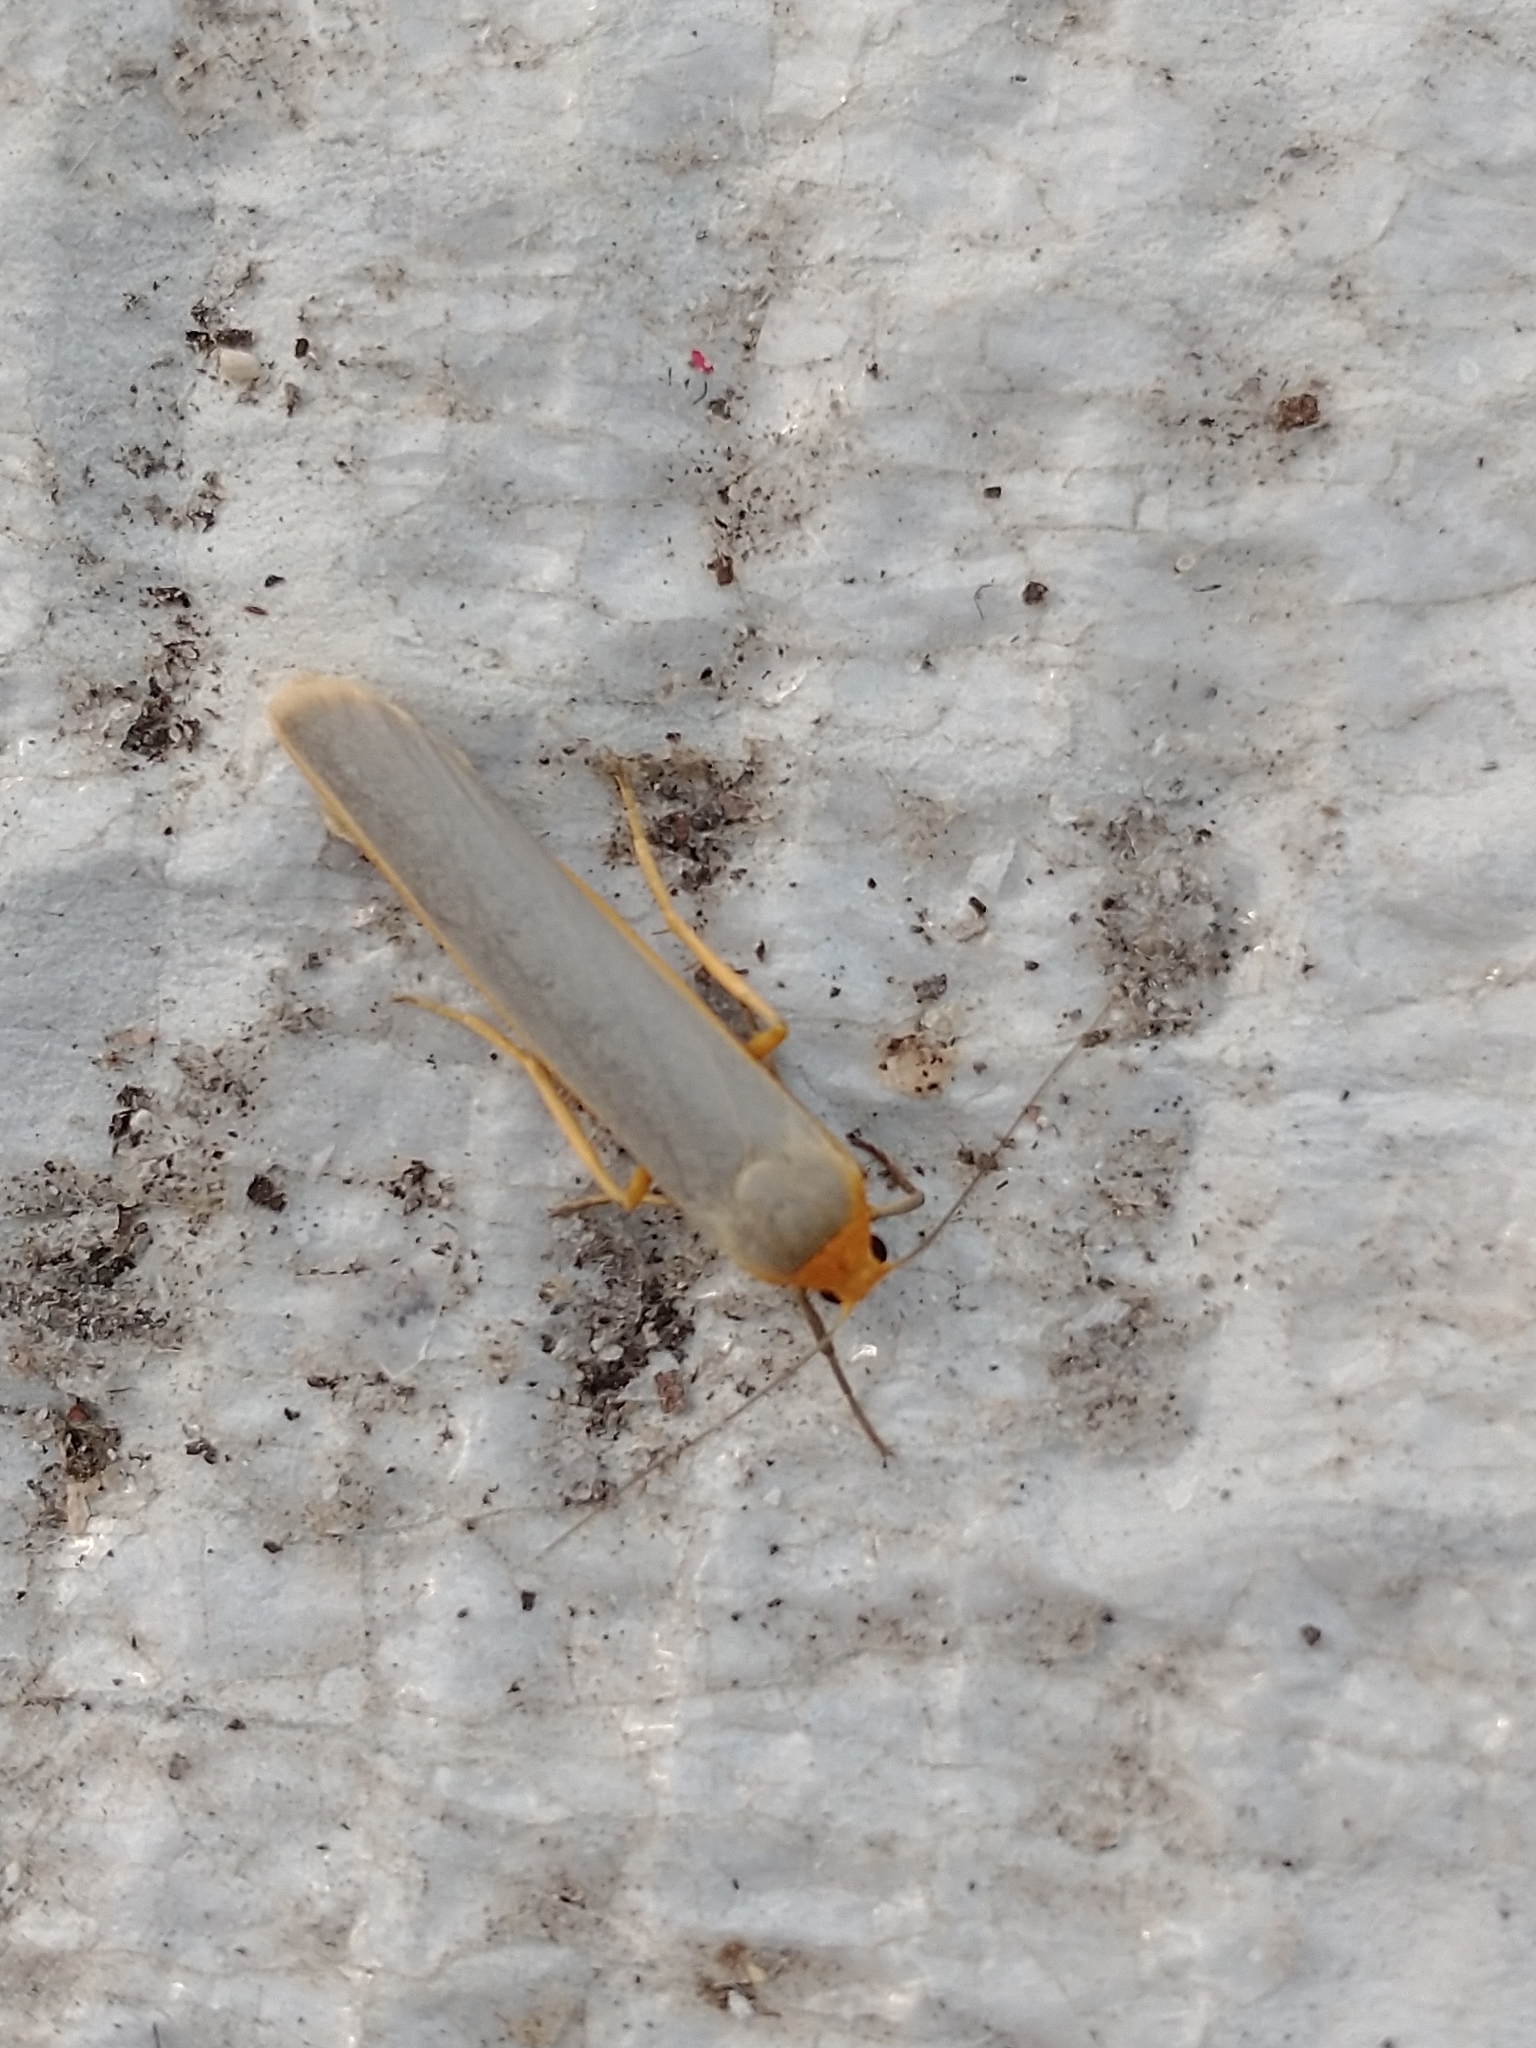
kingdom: Animalia
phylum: Arthropoda
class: Insecta
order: Lepidoptera
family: Erebidae
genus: Manulea
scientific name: Manulea complana
